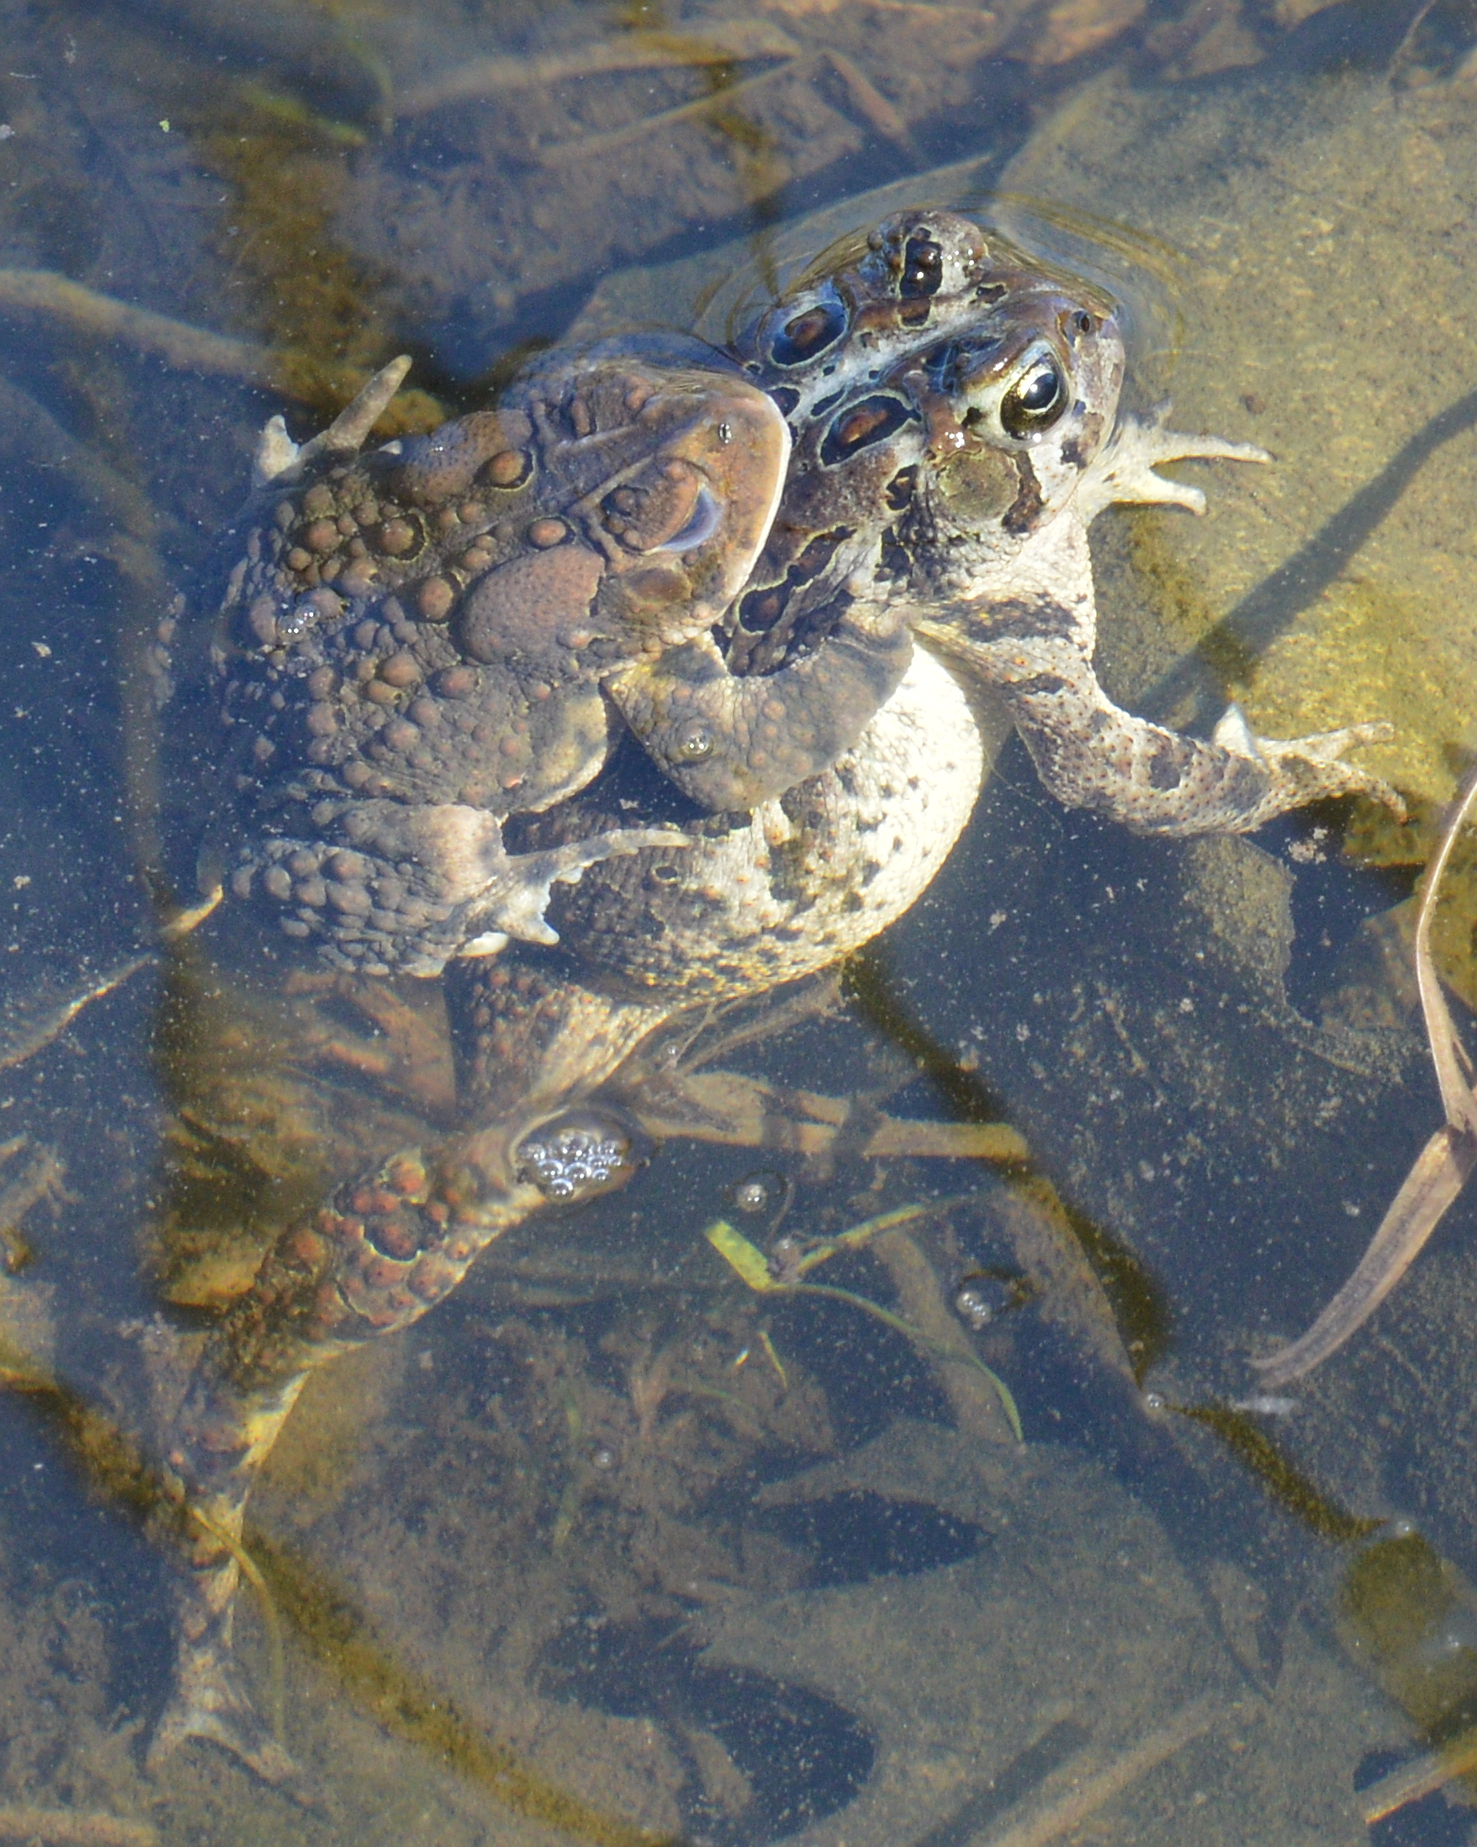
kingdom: Animalia
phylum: Chordata
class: Amphibia
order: Anura
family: Bufonidae
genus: Anaxyrus
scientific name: Anaxyrus americanus
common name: American toad
